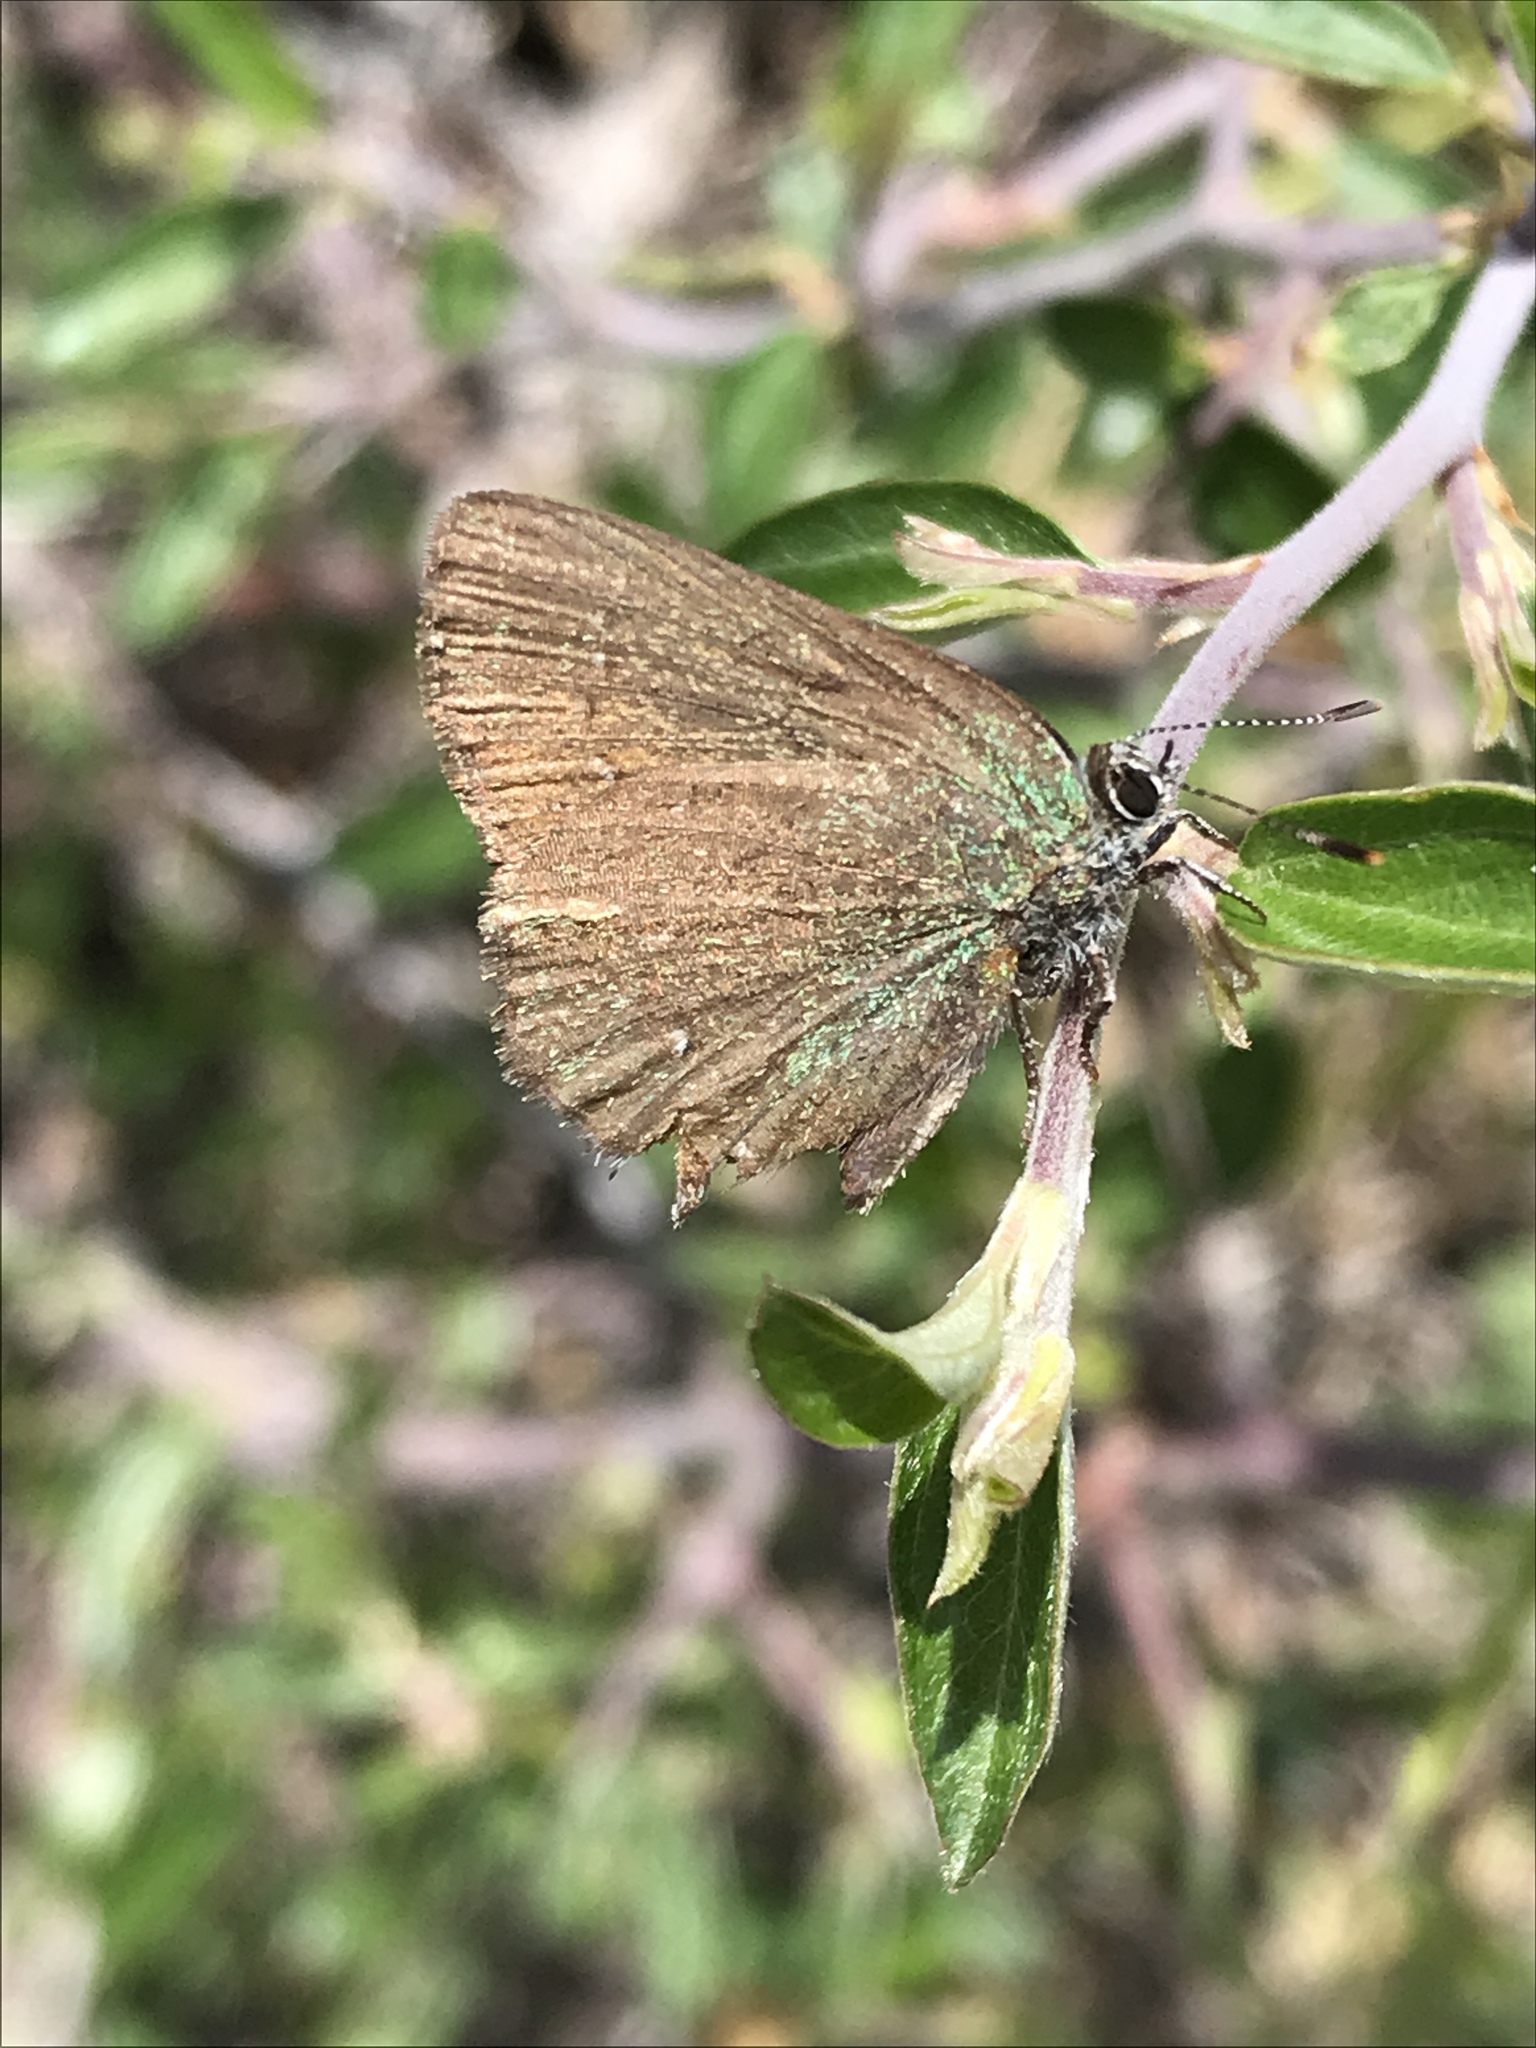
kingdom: Animalia
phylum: Arthropoda
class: Insecta
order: Lepidoptera
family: Lycaenidae
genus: Callophrys
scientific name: Callophrys apama
